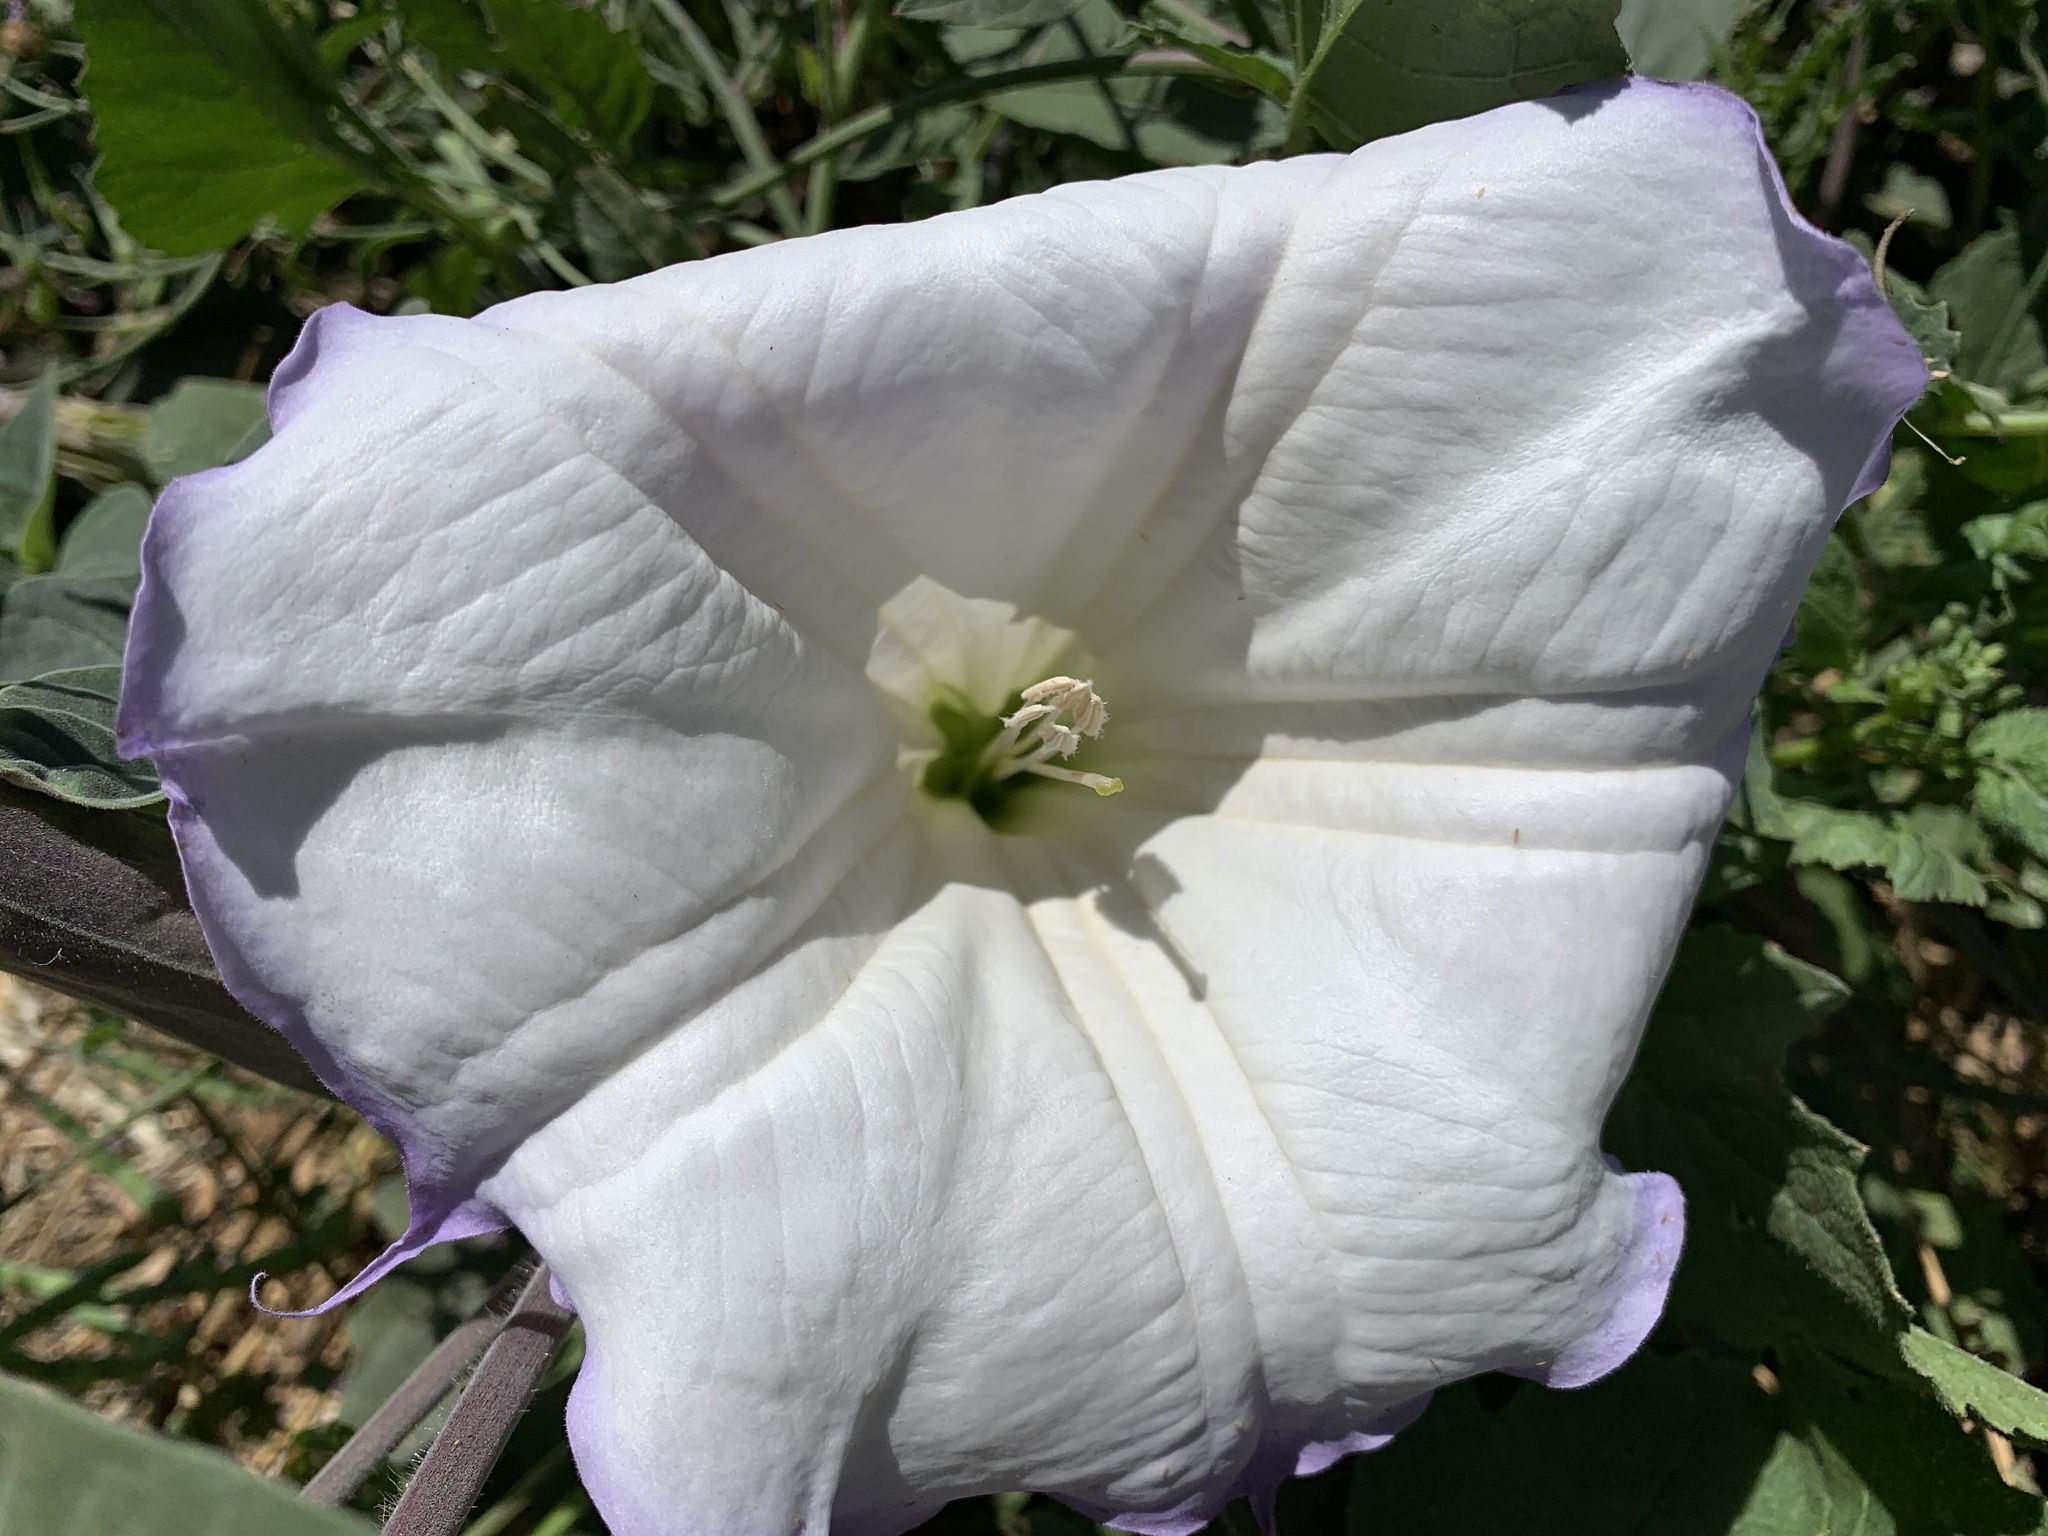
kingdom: Plantae
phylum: Tracheophyta
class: Magnoliopsida
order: Solanales
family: Solanaceae
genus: Datura
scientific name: Datura wrightii
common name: Sacred thorn-apple
